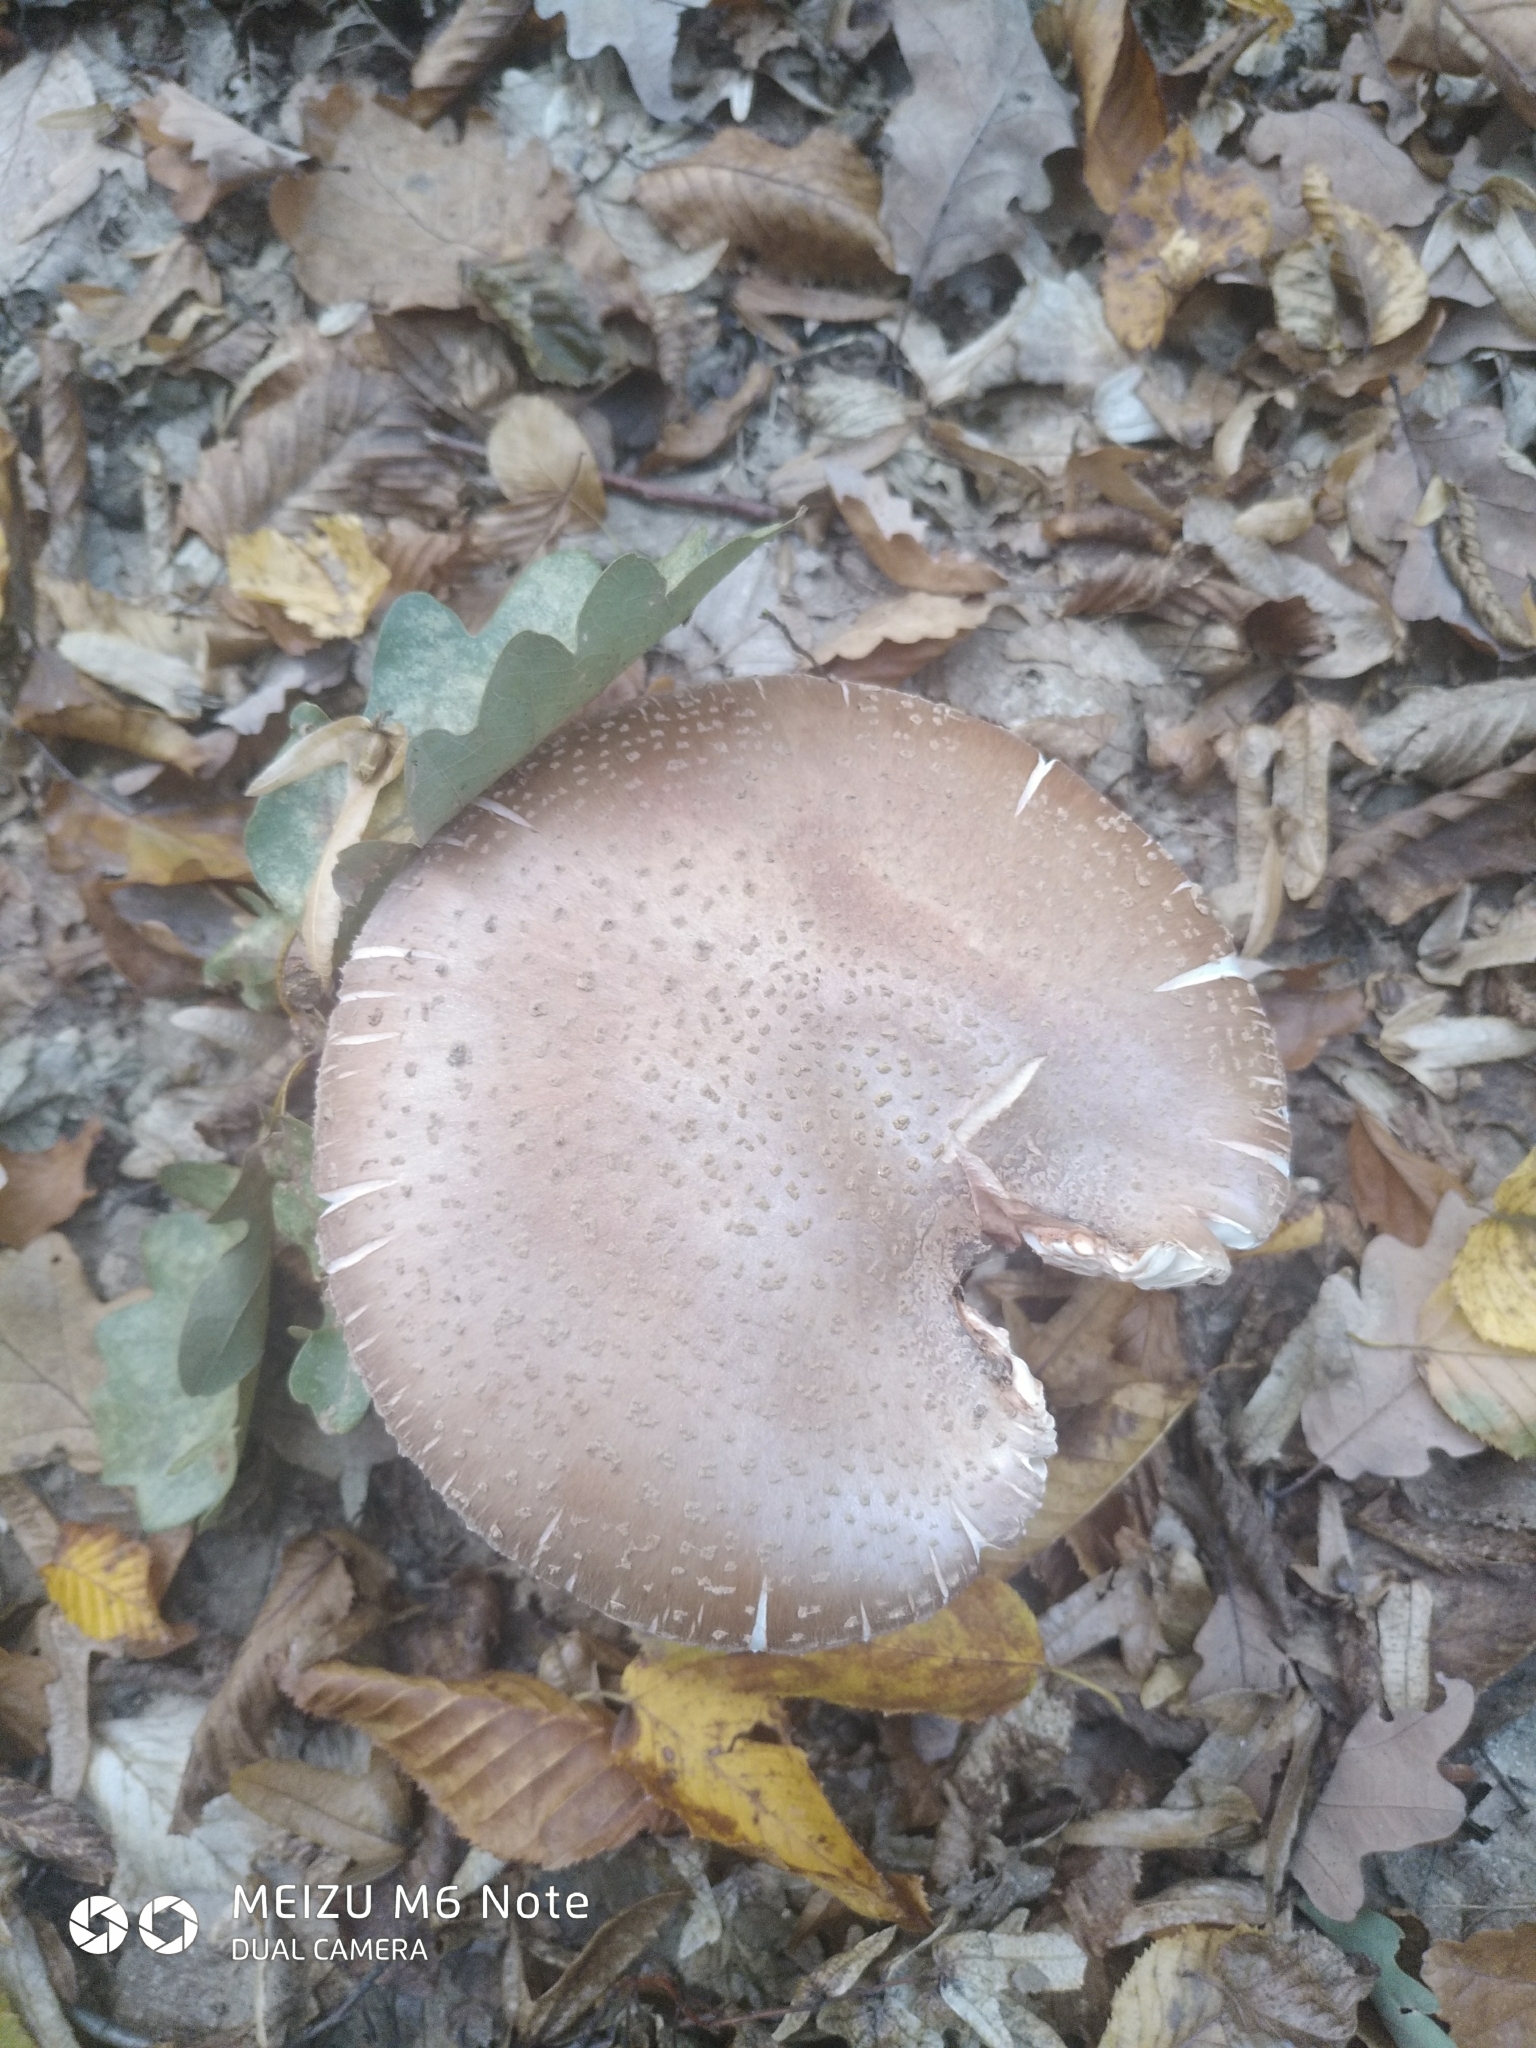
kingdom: Fungi
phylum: Basidiomycota
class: Agaricomycetes
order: Agaricales
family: Amanitaceae
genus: Amanita
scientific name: Amanita rubescens
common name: Blusher
